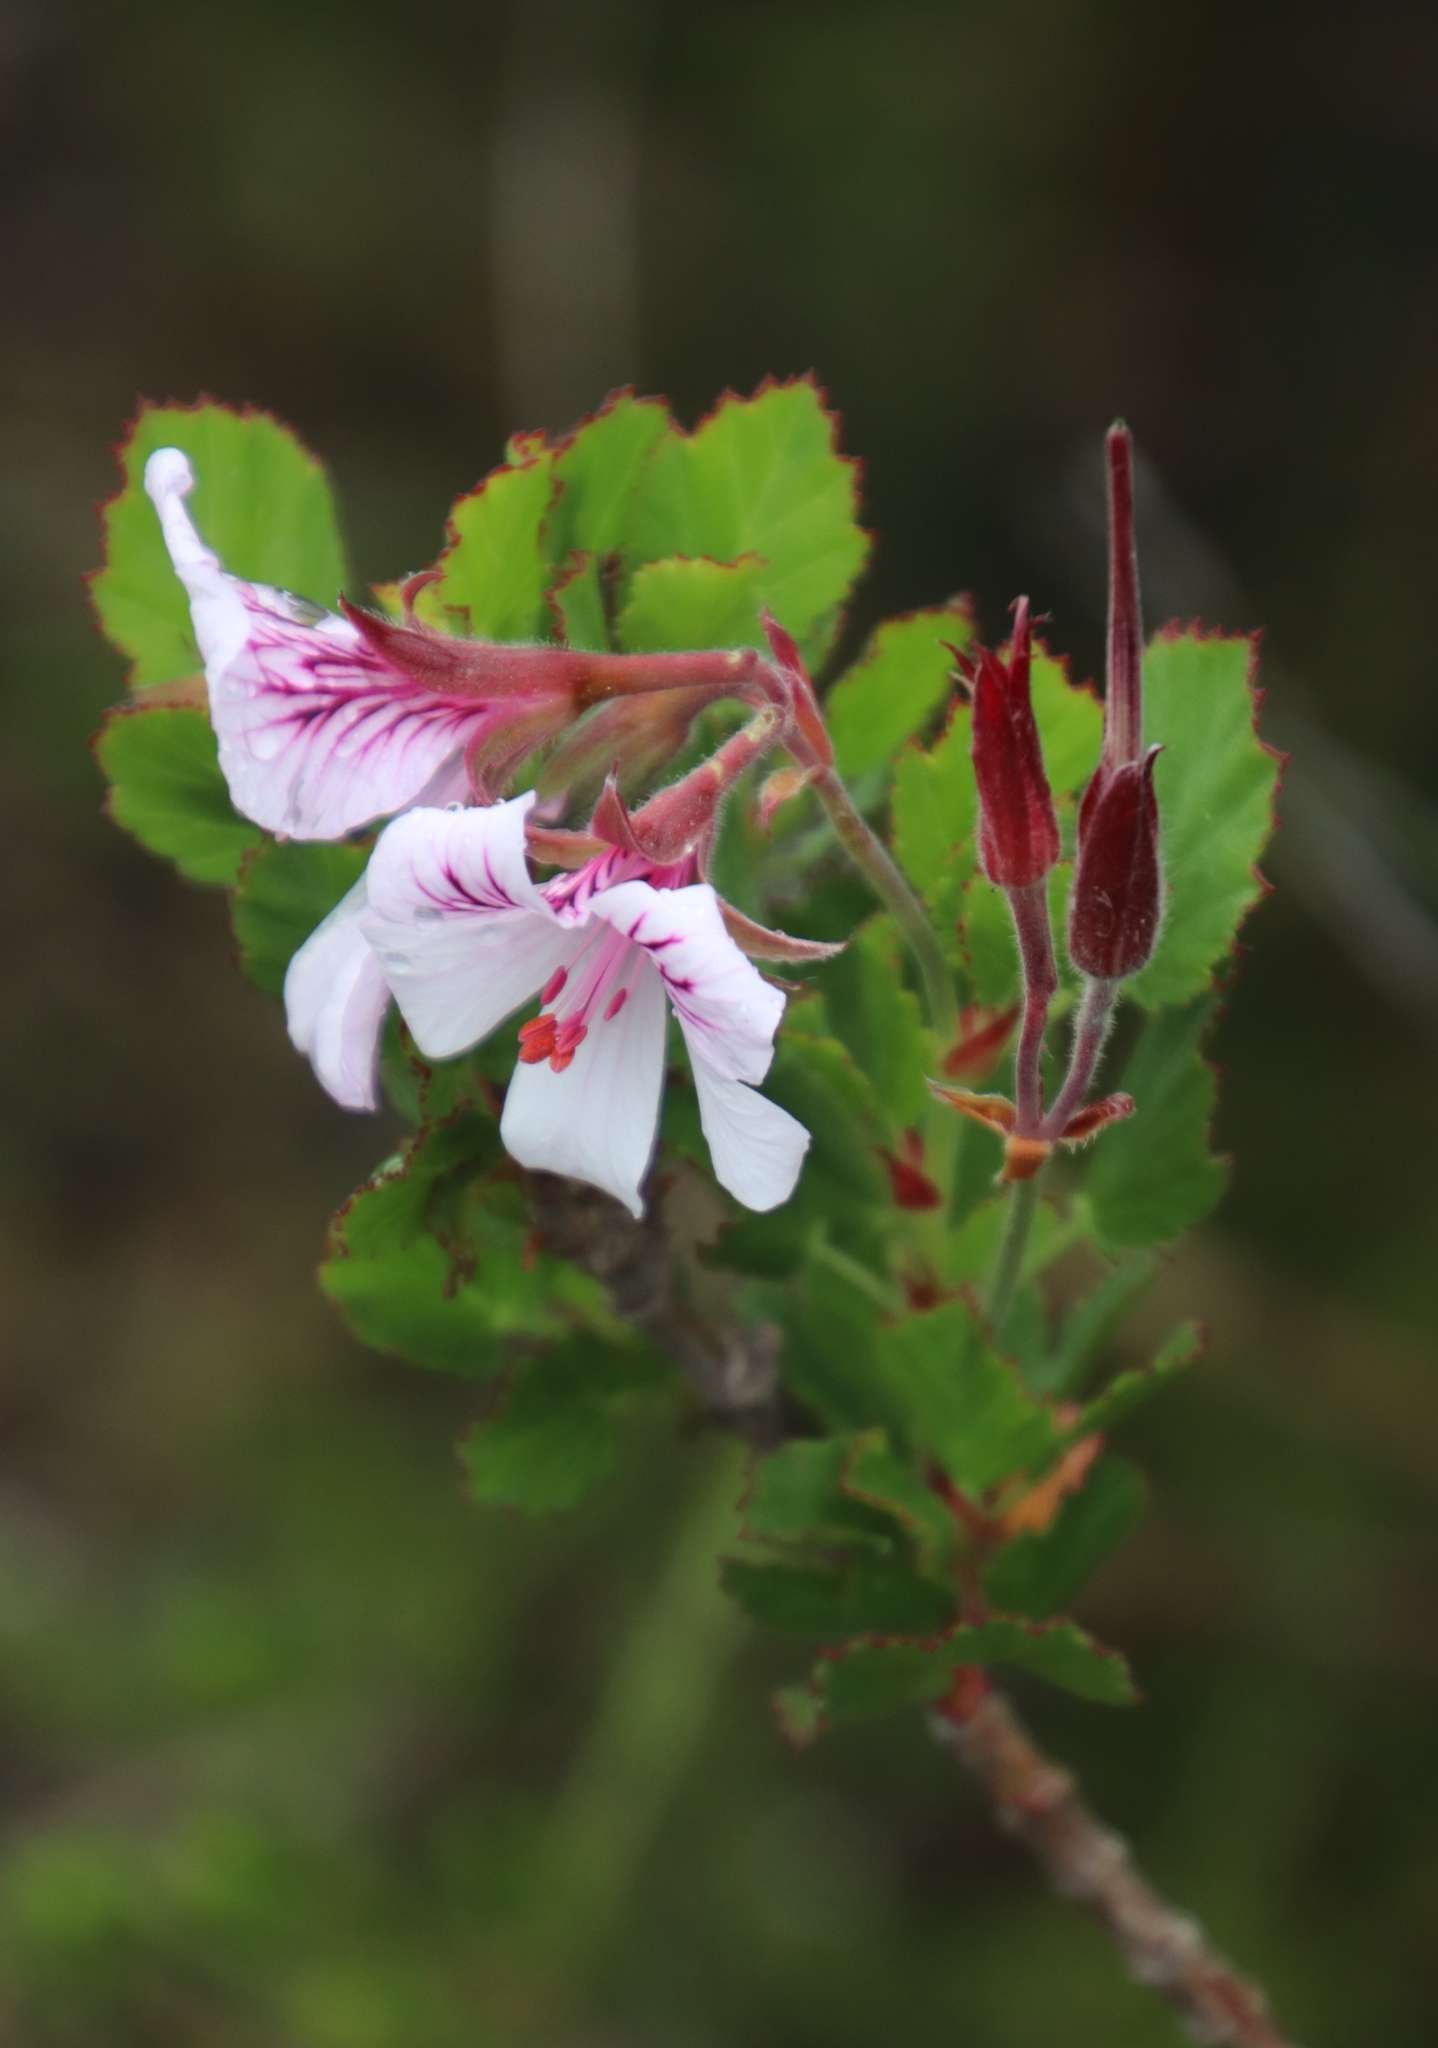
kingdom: Plantae
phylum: Tracheophyta
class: Magnoliopsida
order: Geraniales
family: Geraniaceae
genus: Pelargonium
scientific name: Pelargonium betulinum
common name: Birch-leaf pelargonium
